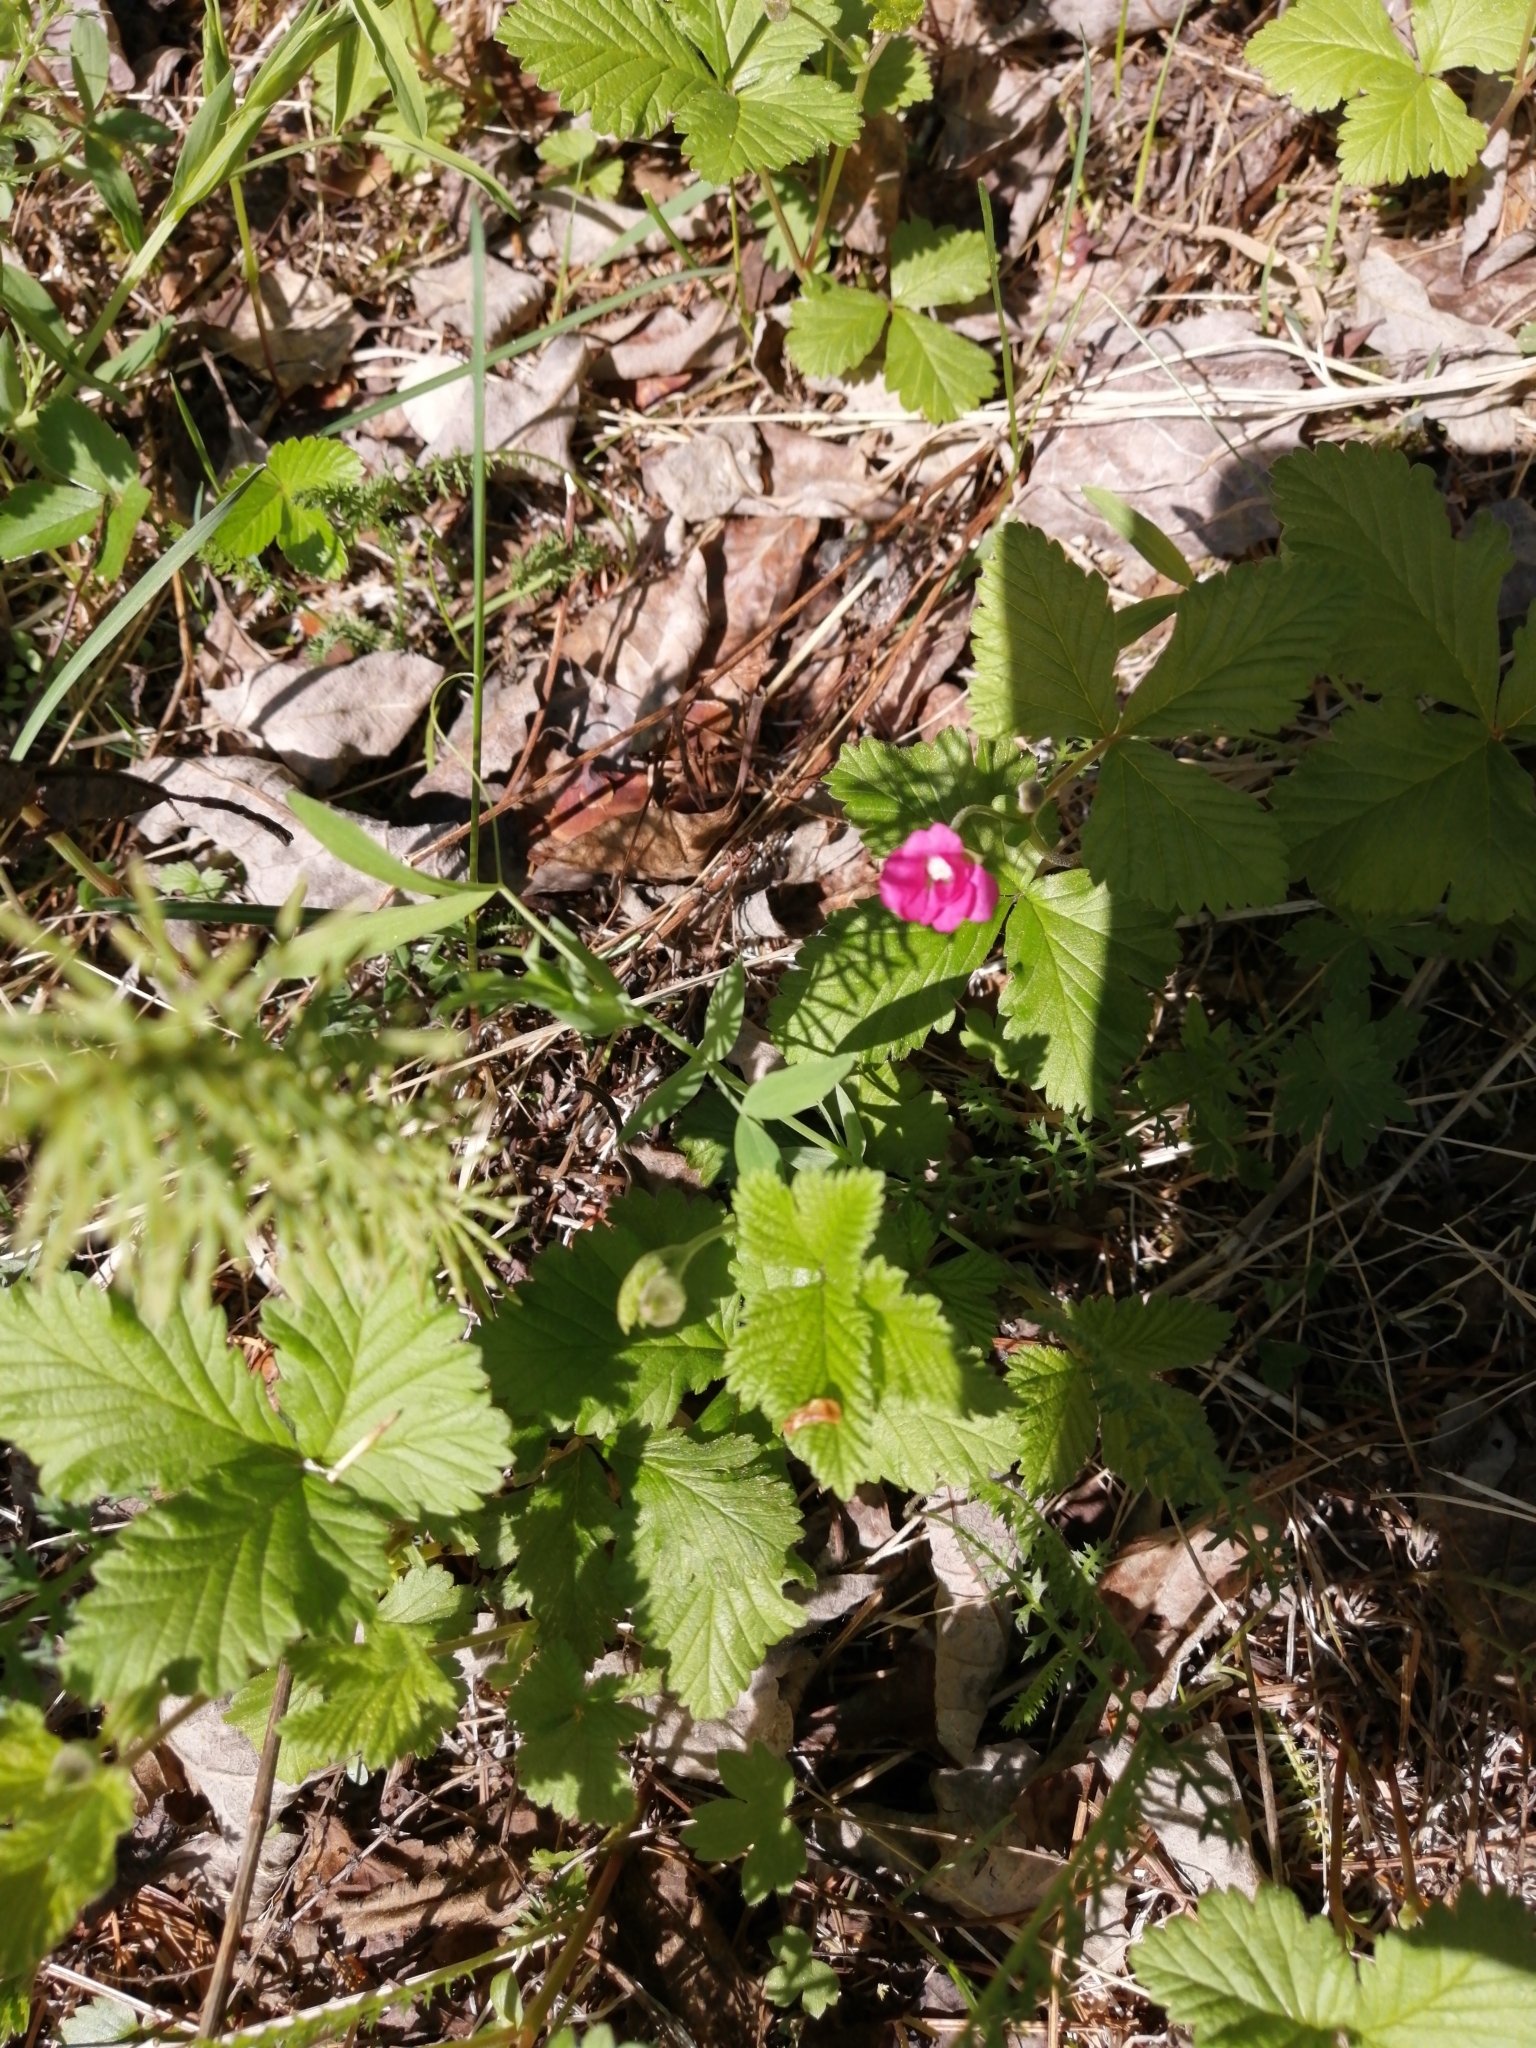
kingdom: Plantae
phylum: Tracheophyta
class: Magnoliopsida
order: Rosales
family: Rosaceae
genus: Rubus
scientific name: Rubus arcticus
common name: Arctic bramble
